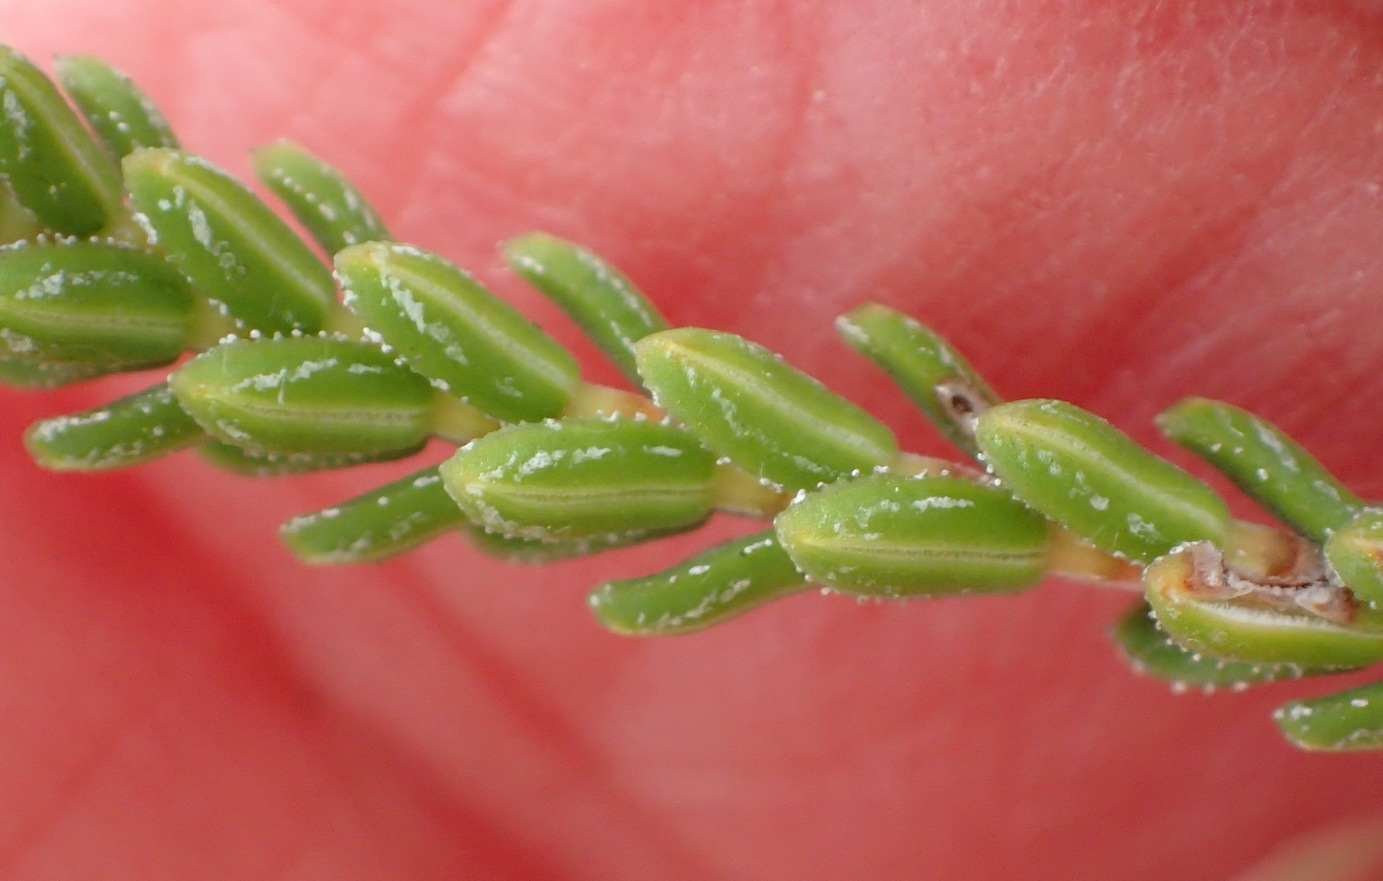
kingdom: Plantae
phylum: Tracheophyta
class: Magnoliopsida
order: Ericales
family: Ericaceae
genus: Erica
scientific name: Erica fimbriata
